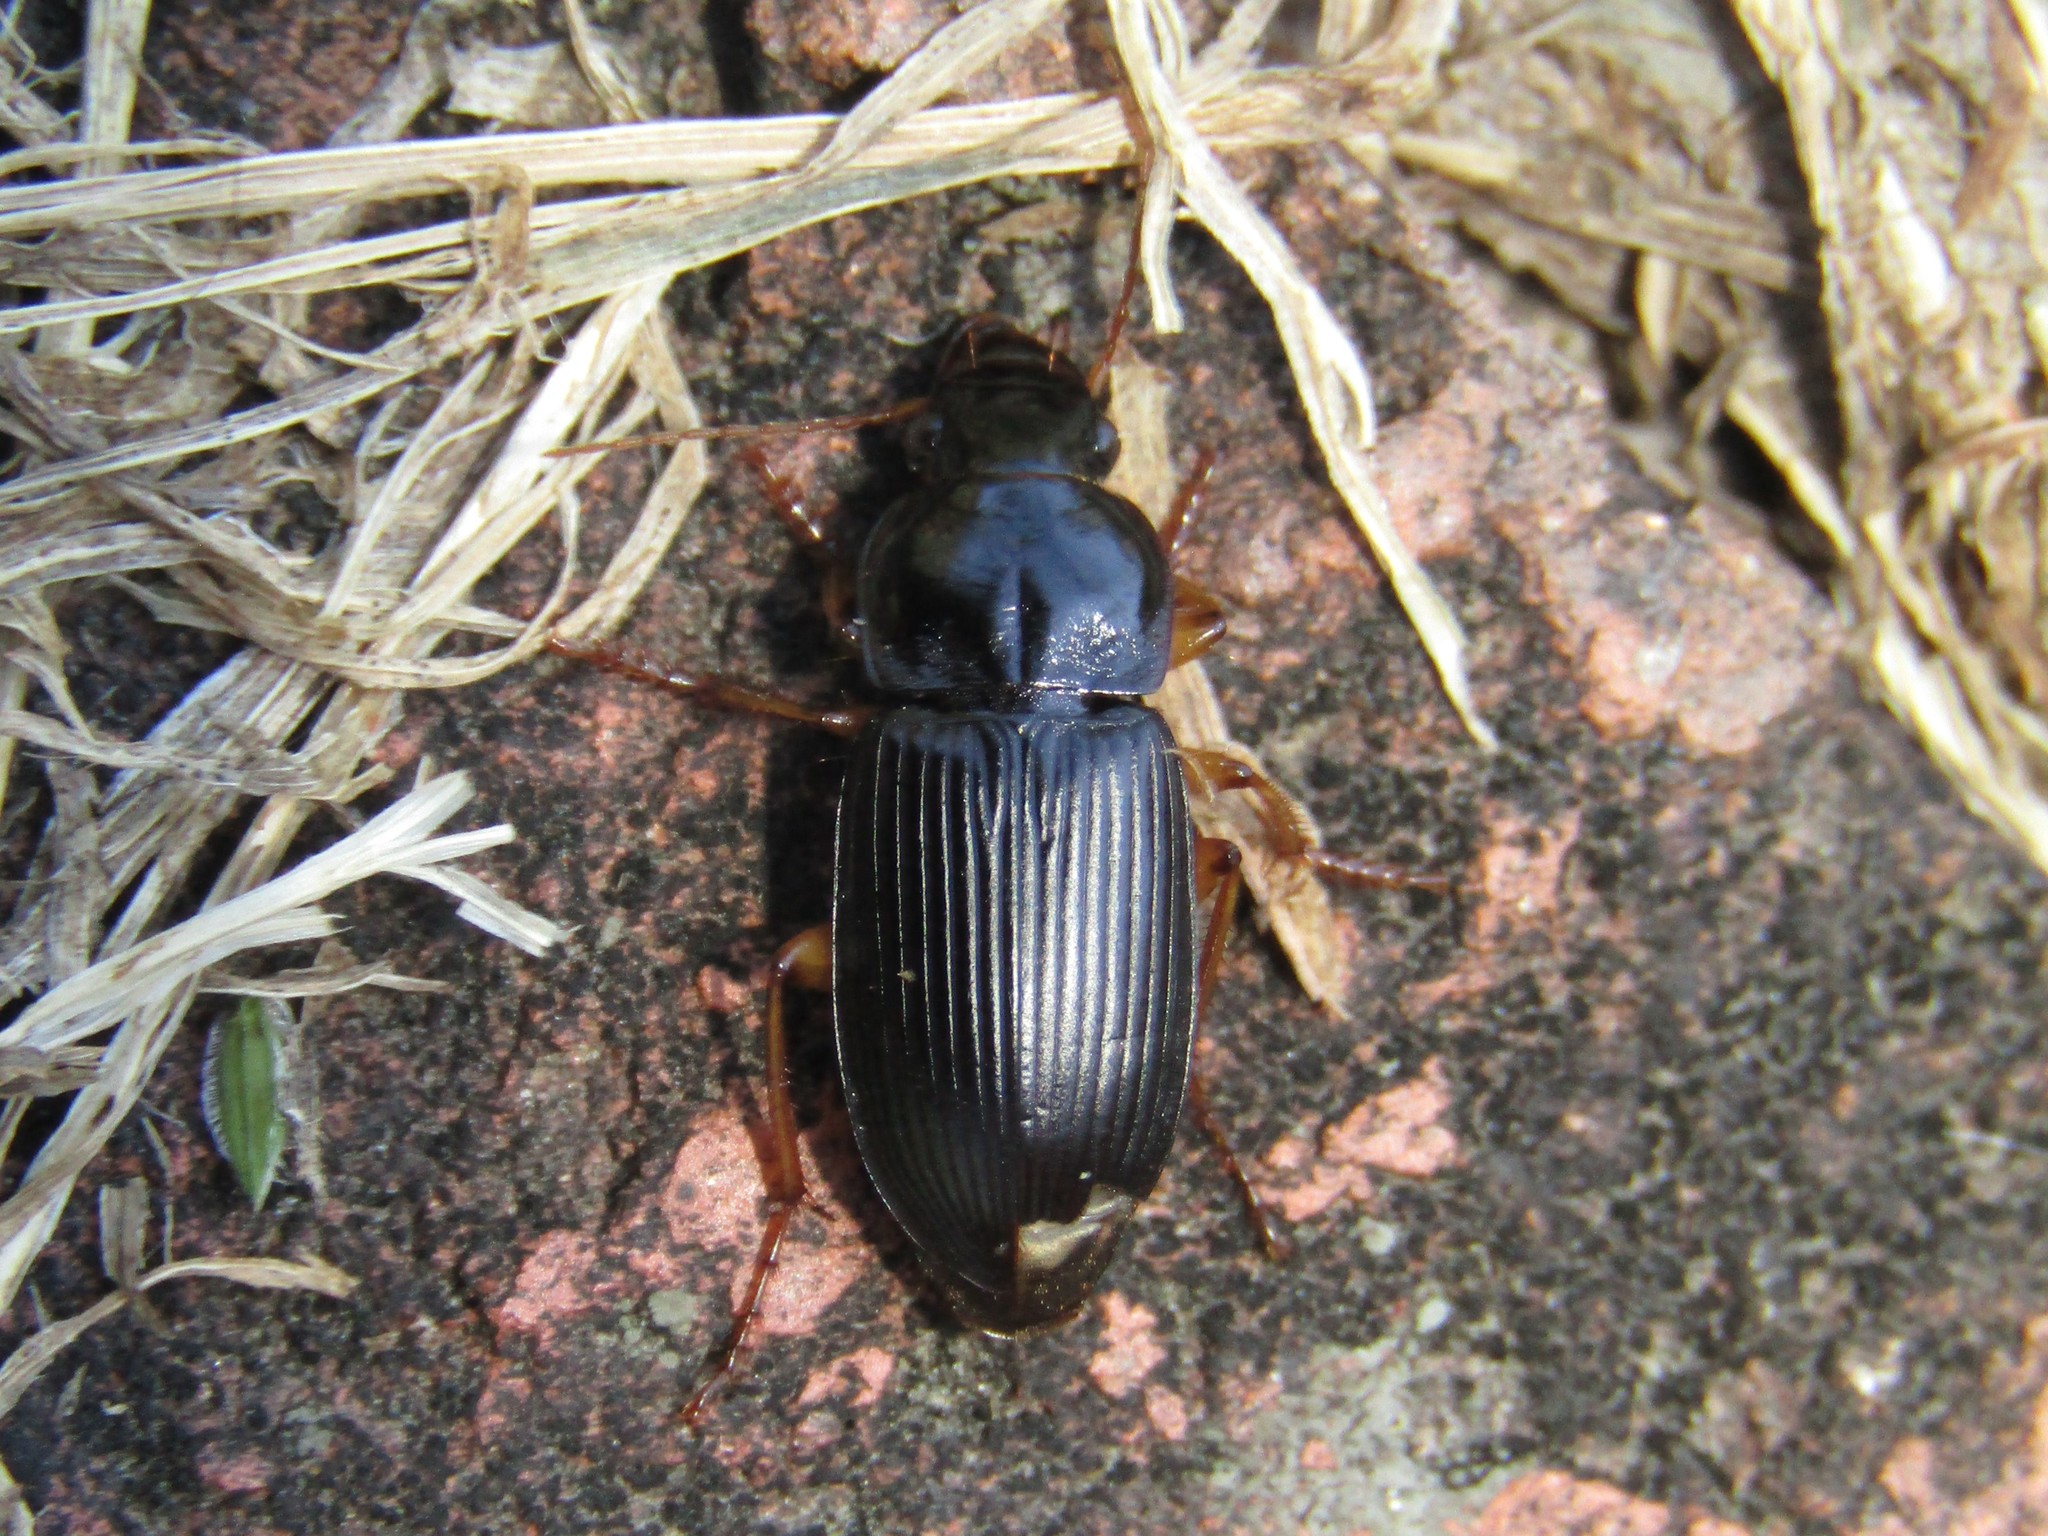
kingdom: Animalia
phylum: Arthropoda
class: Insecta
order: Coleoptera
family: Carabidae
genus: Harpalus
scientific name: Harpalus pensylvanicus
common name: Pennsylvania dingy ground beetle
